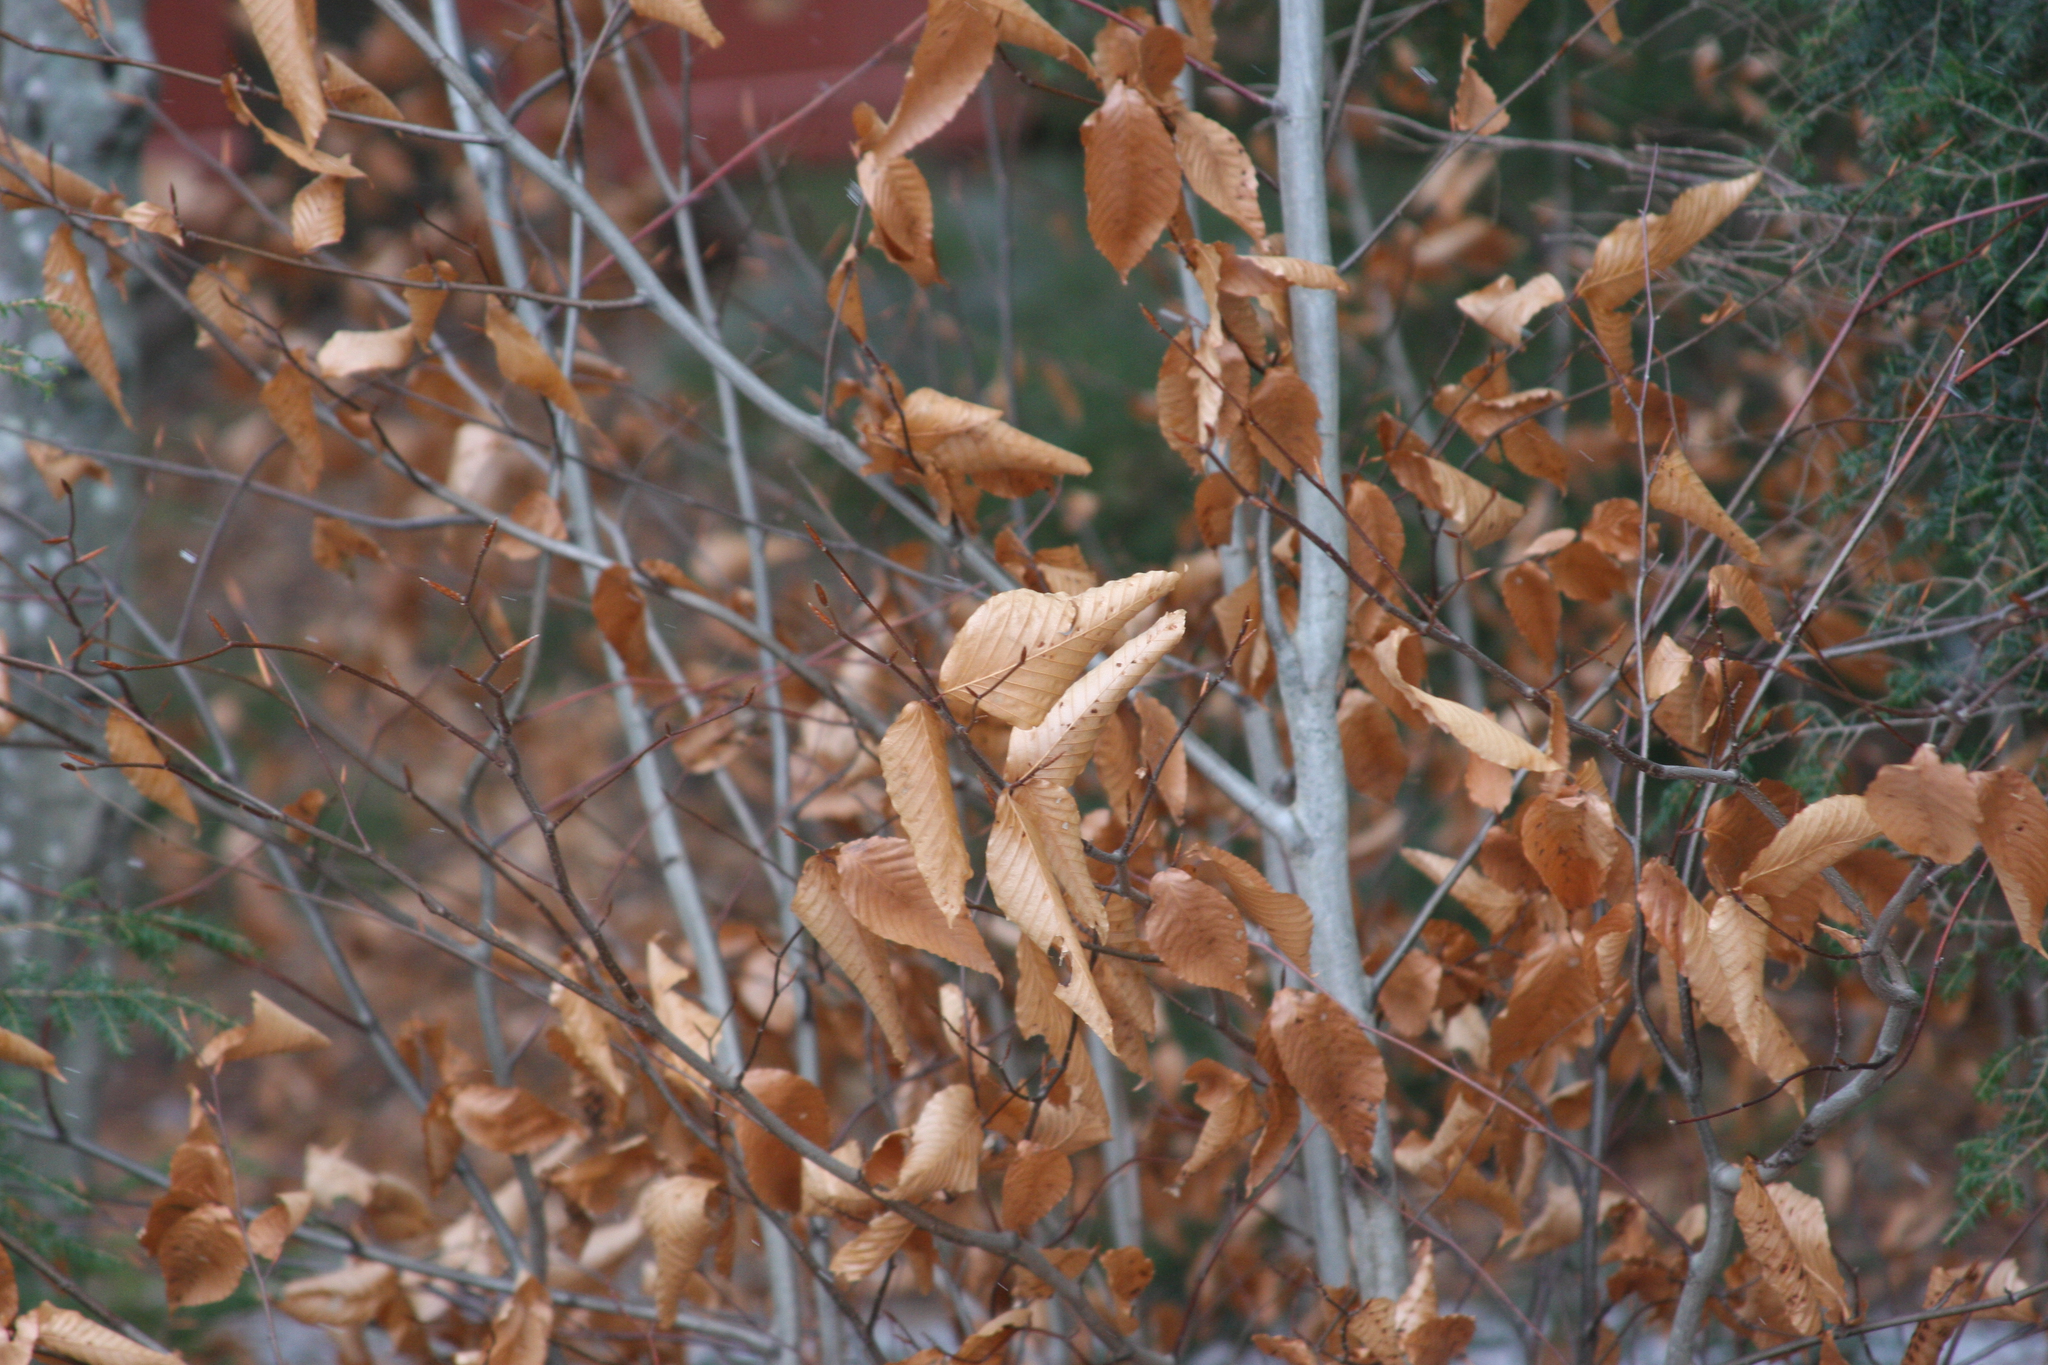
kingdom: Plantae
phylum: Tracheophyta
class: Magnoliopsida
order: Fagales
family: Fagaceae
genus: Fagus
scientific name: Fagus grandifolia
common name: American beech
